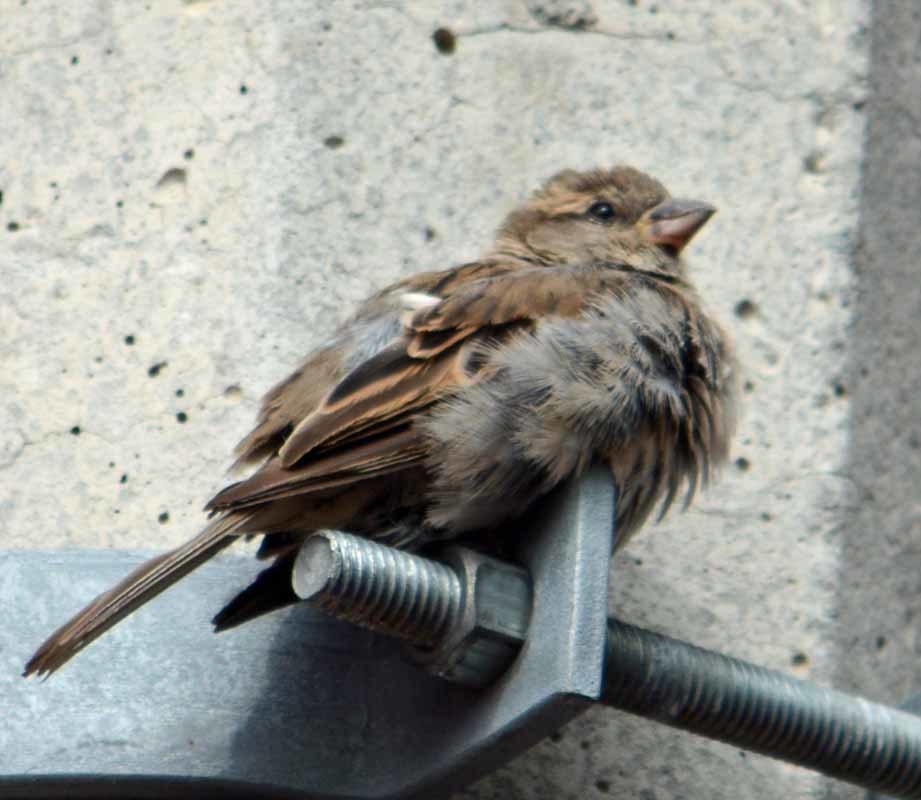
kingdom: Animalia
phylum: Chordata
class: Aves
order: Passeriformes
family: Passeridae
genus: Passer
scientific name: Passer domesticus
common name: House sparrow
